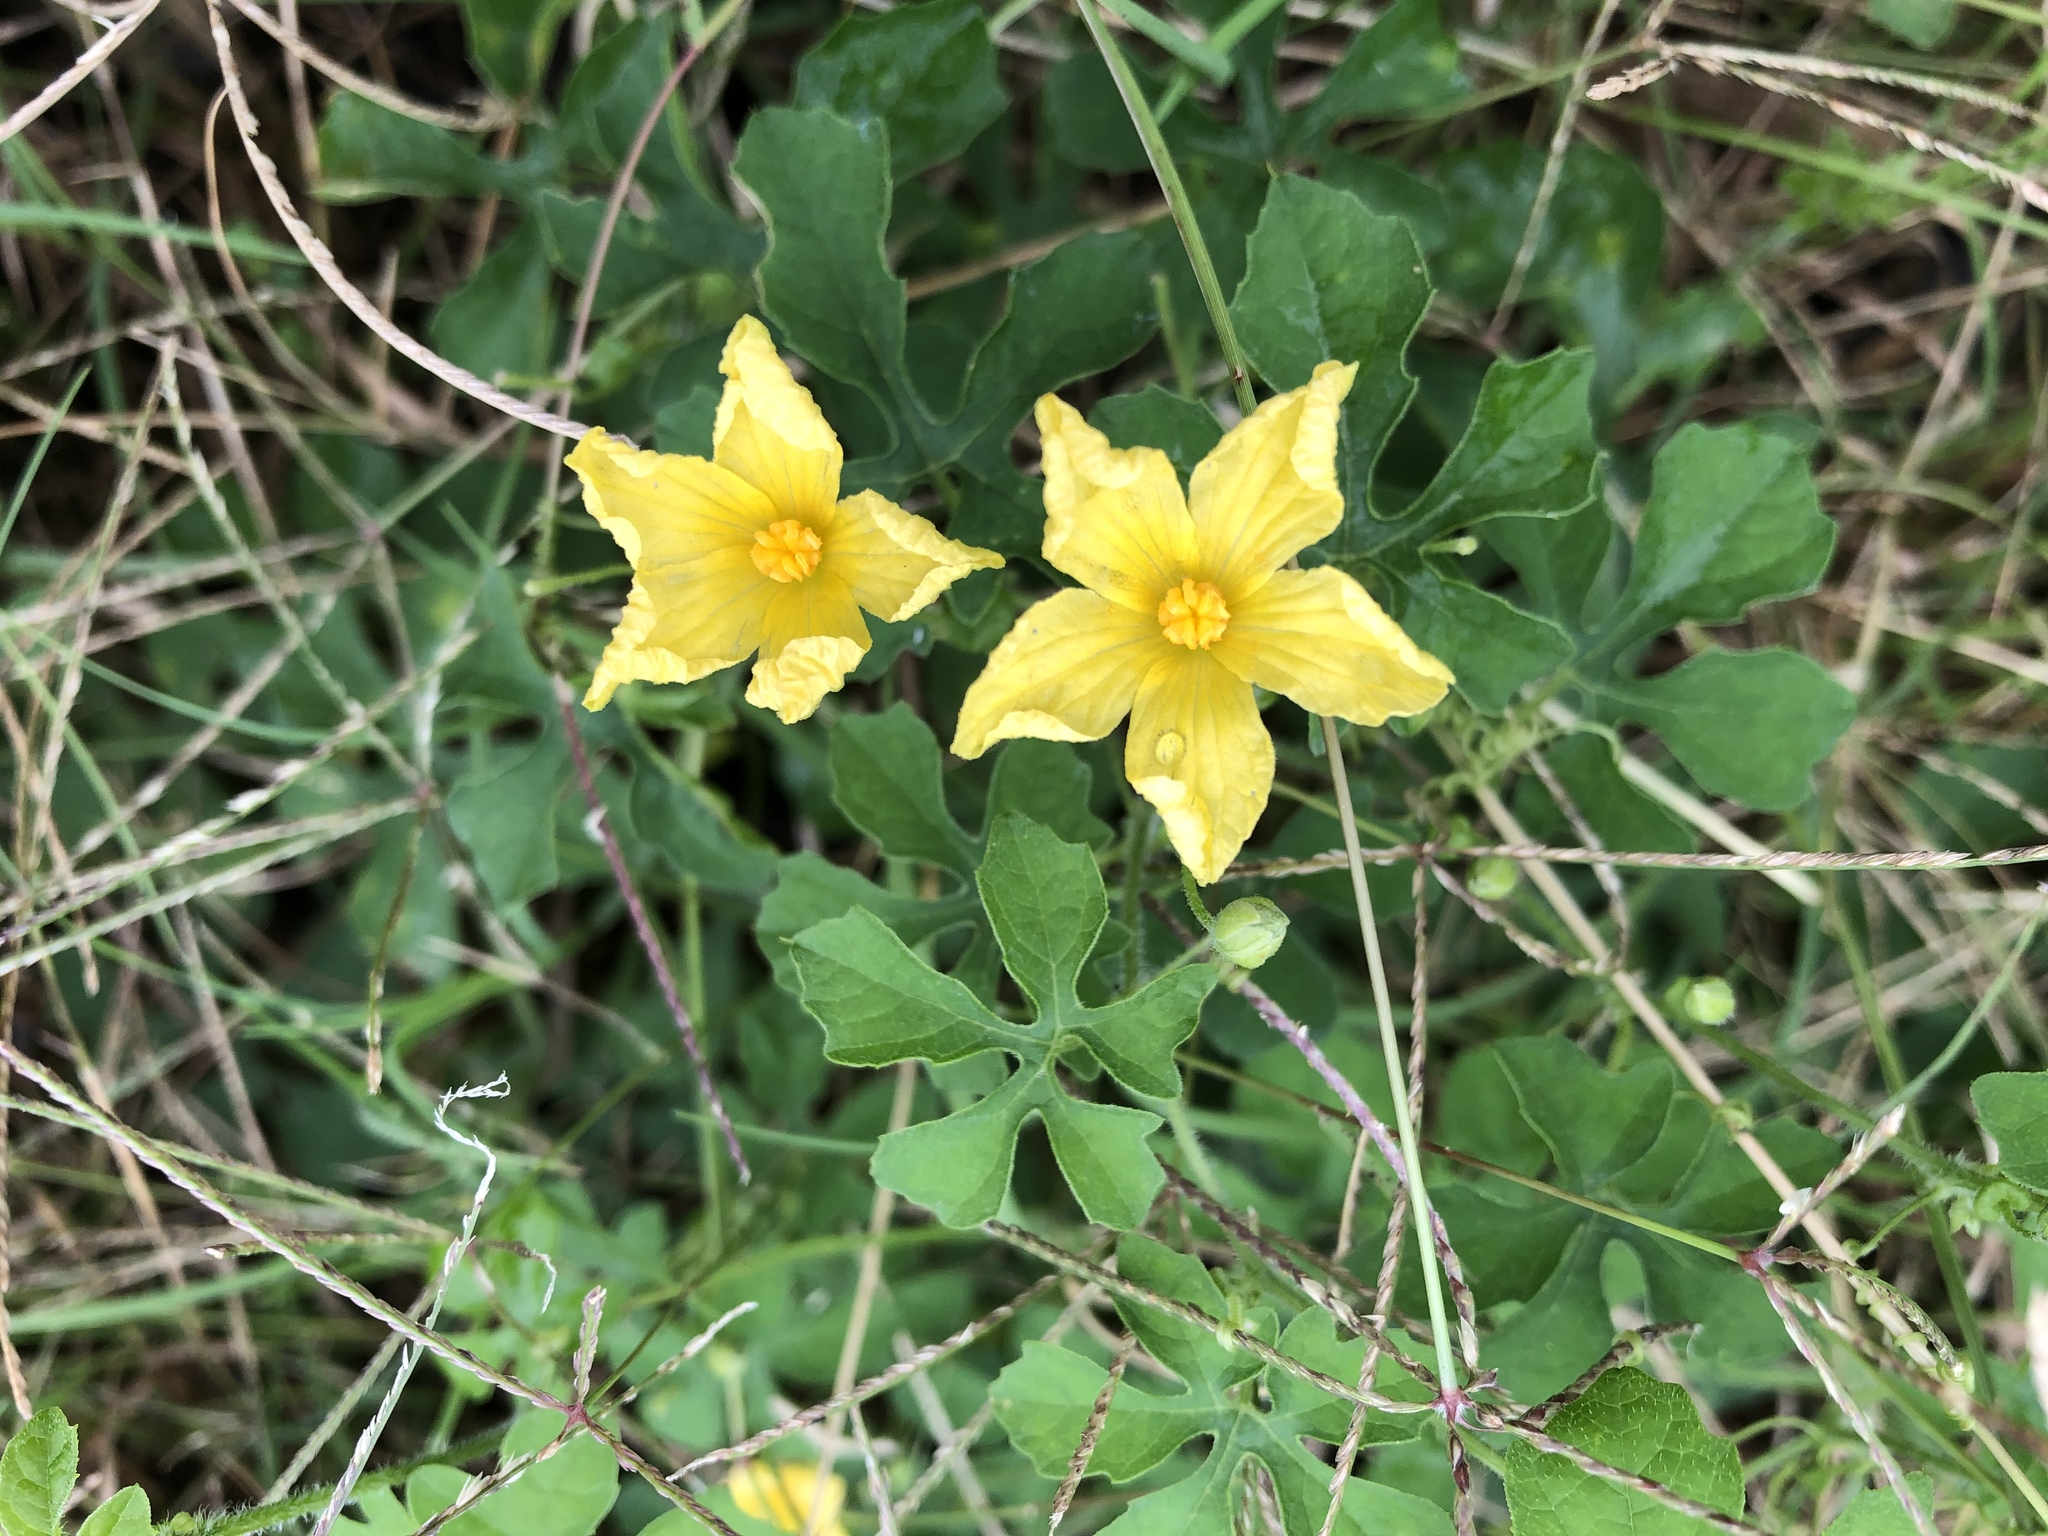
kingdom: Plantae
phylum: Tracheophyta
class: Magnoliopsida
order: Cucurbitales
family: Cucurbitaceae
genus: Momordica
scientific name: Momordica charantia
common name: Balsampear
